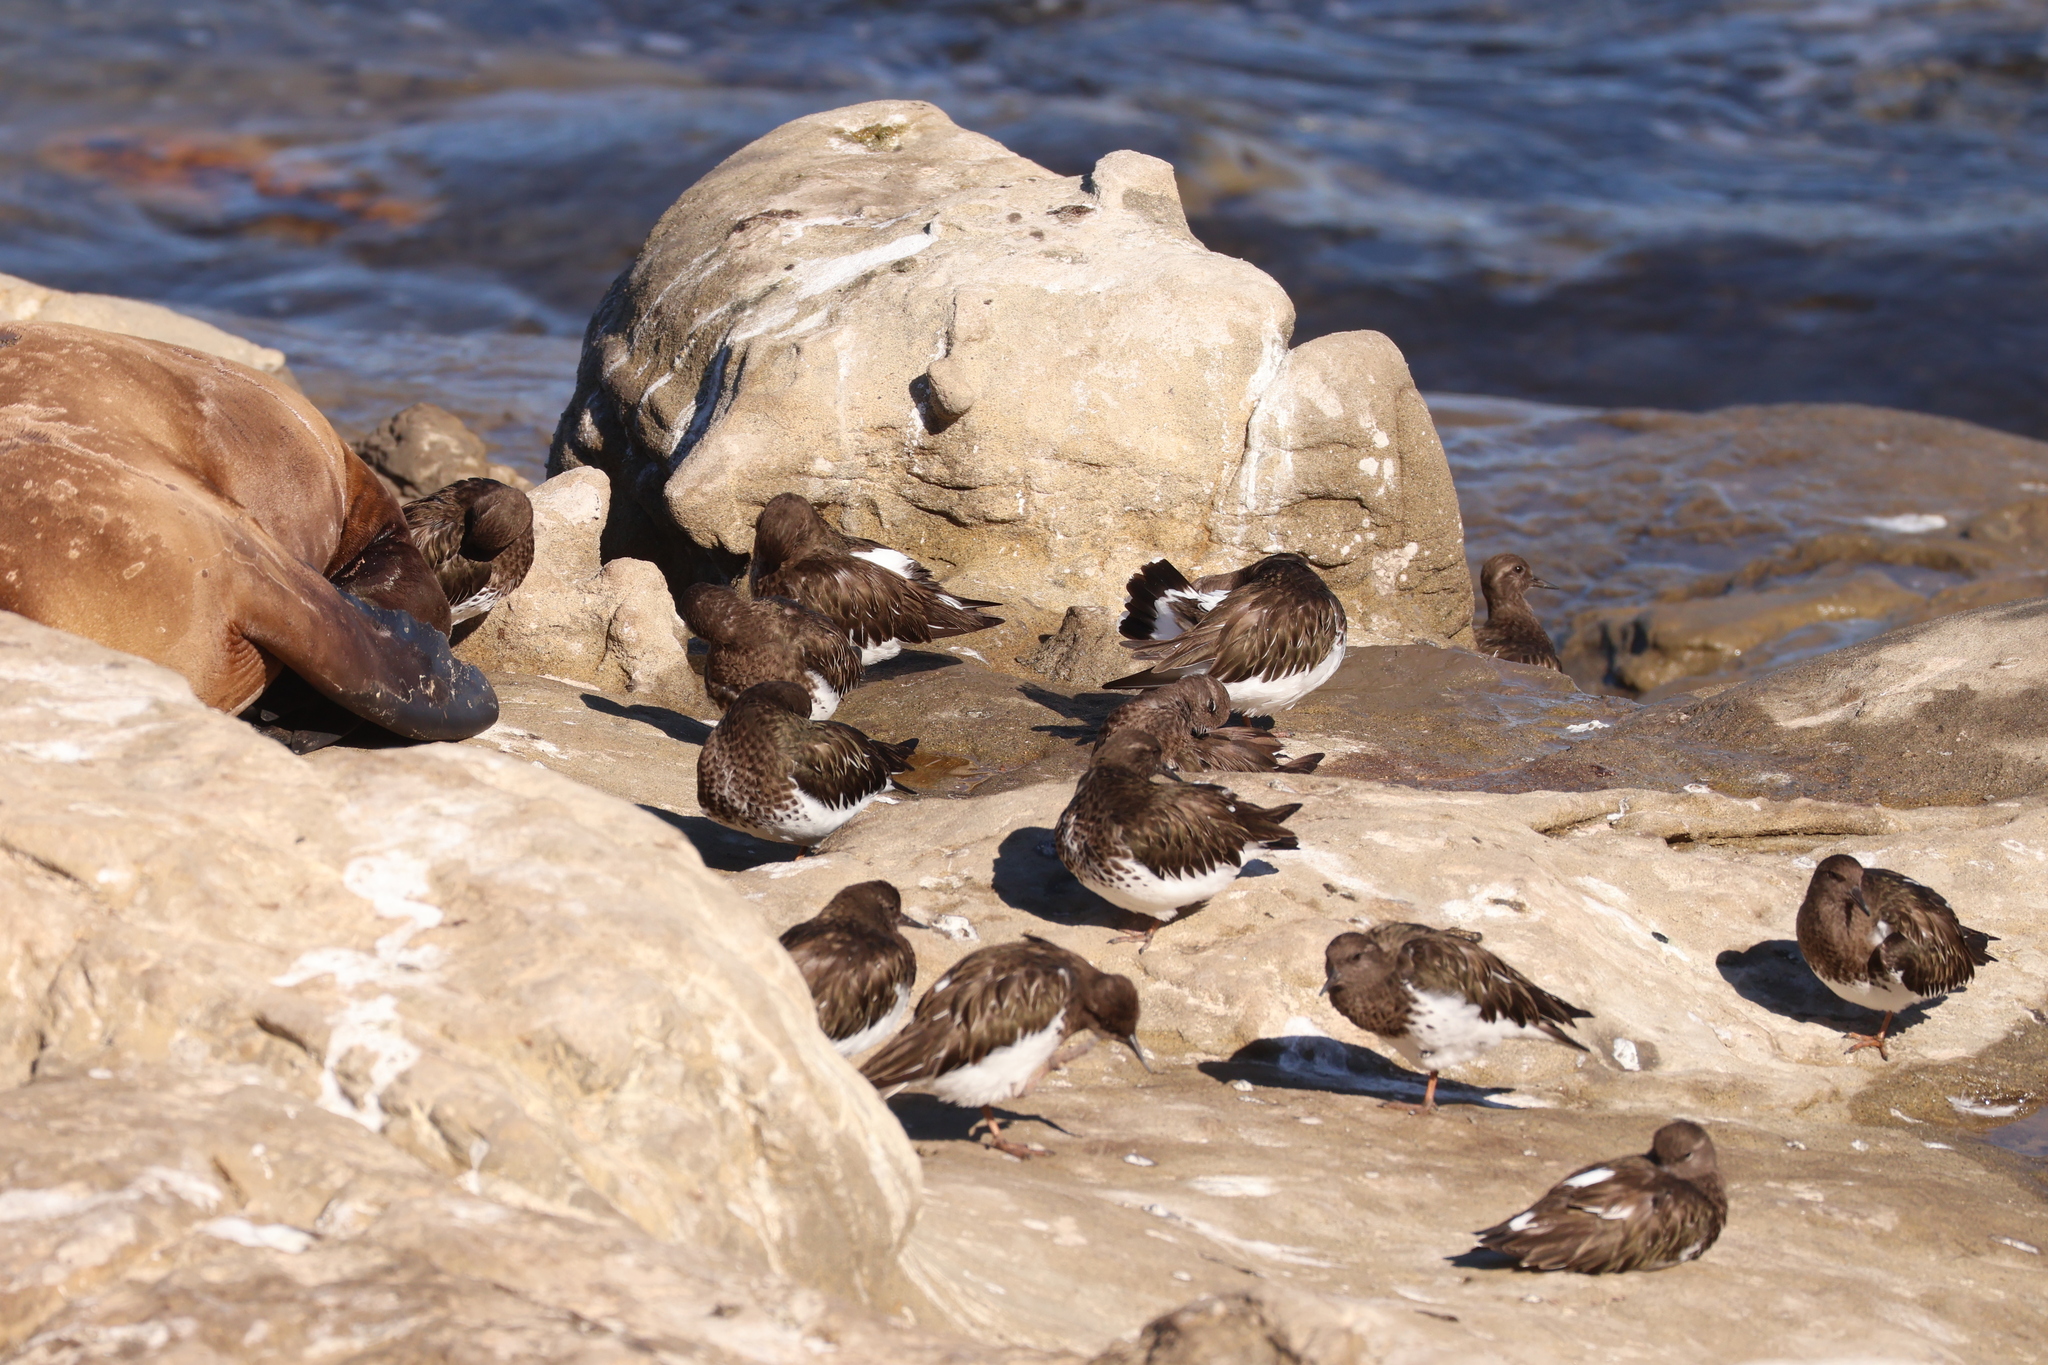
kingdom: Animalia
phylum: Chordata
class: Aves
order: Charadriiformes
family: Scolopacidae
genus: Arenaria
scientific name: Arenaria melanocephala
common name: Black turnstone
